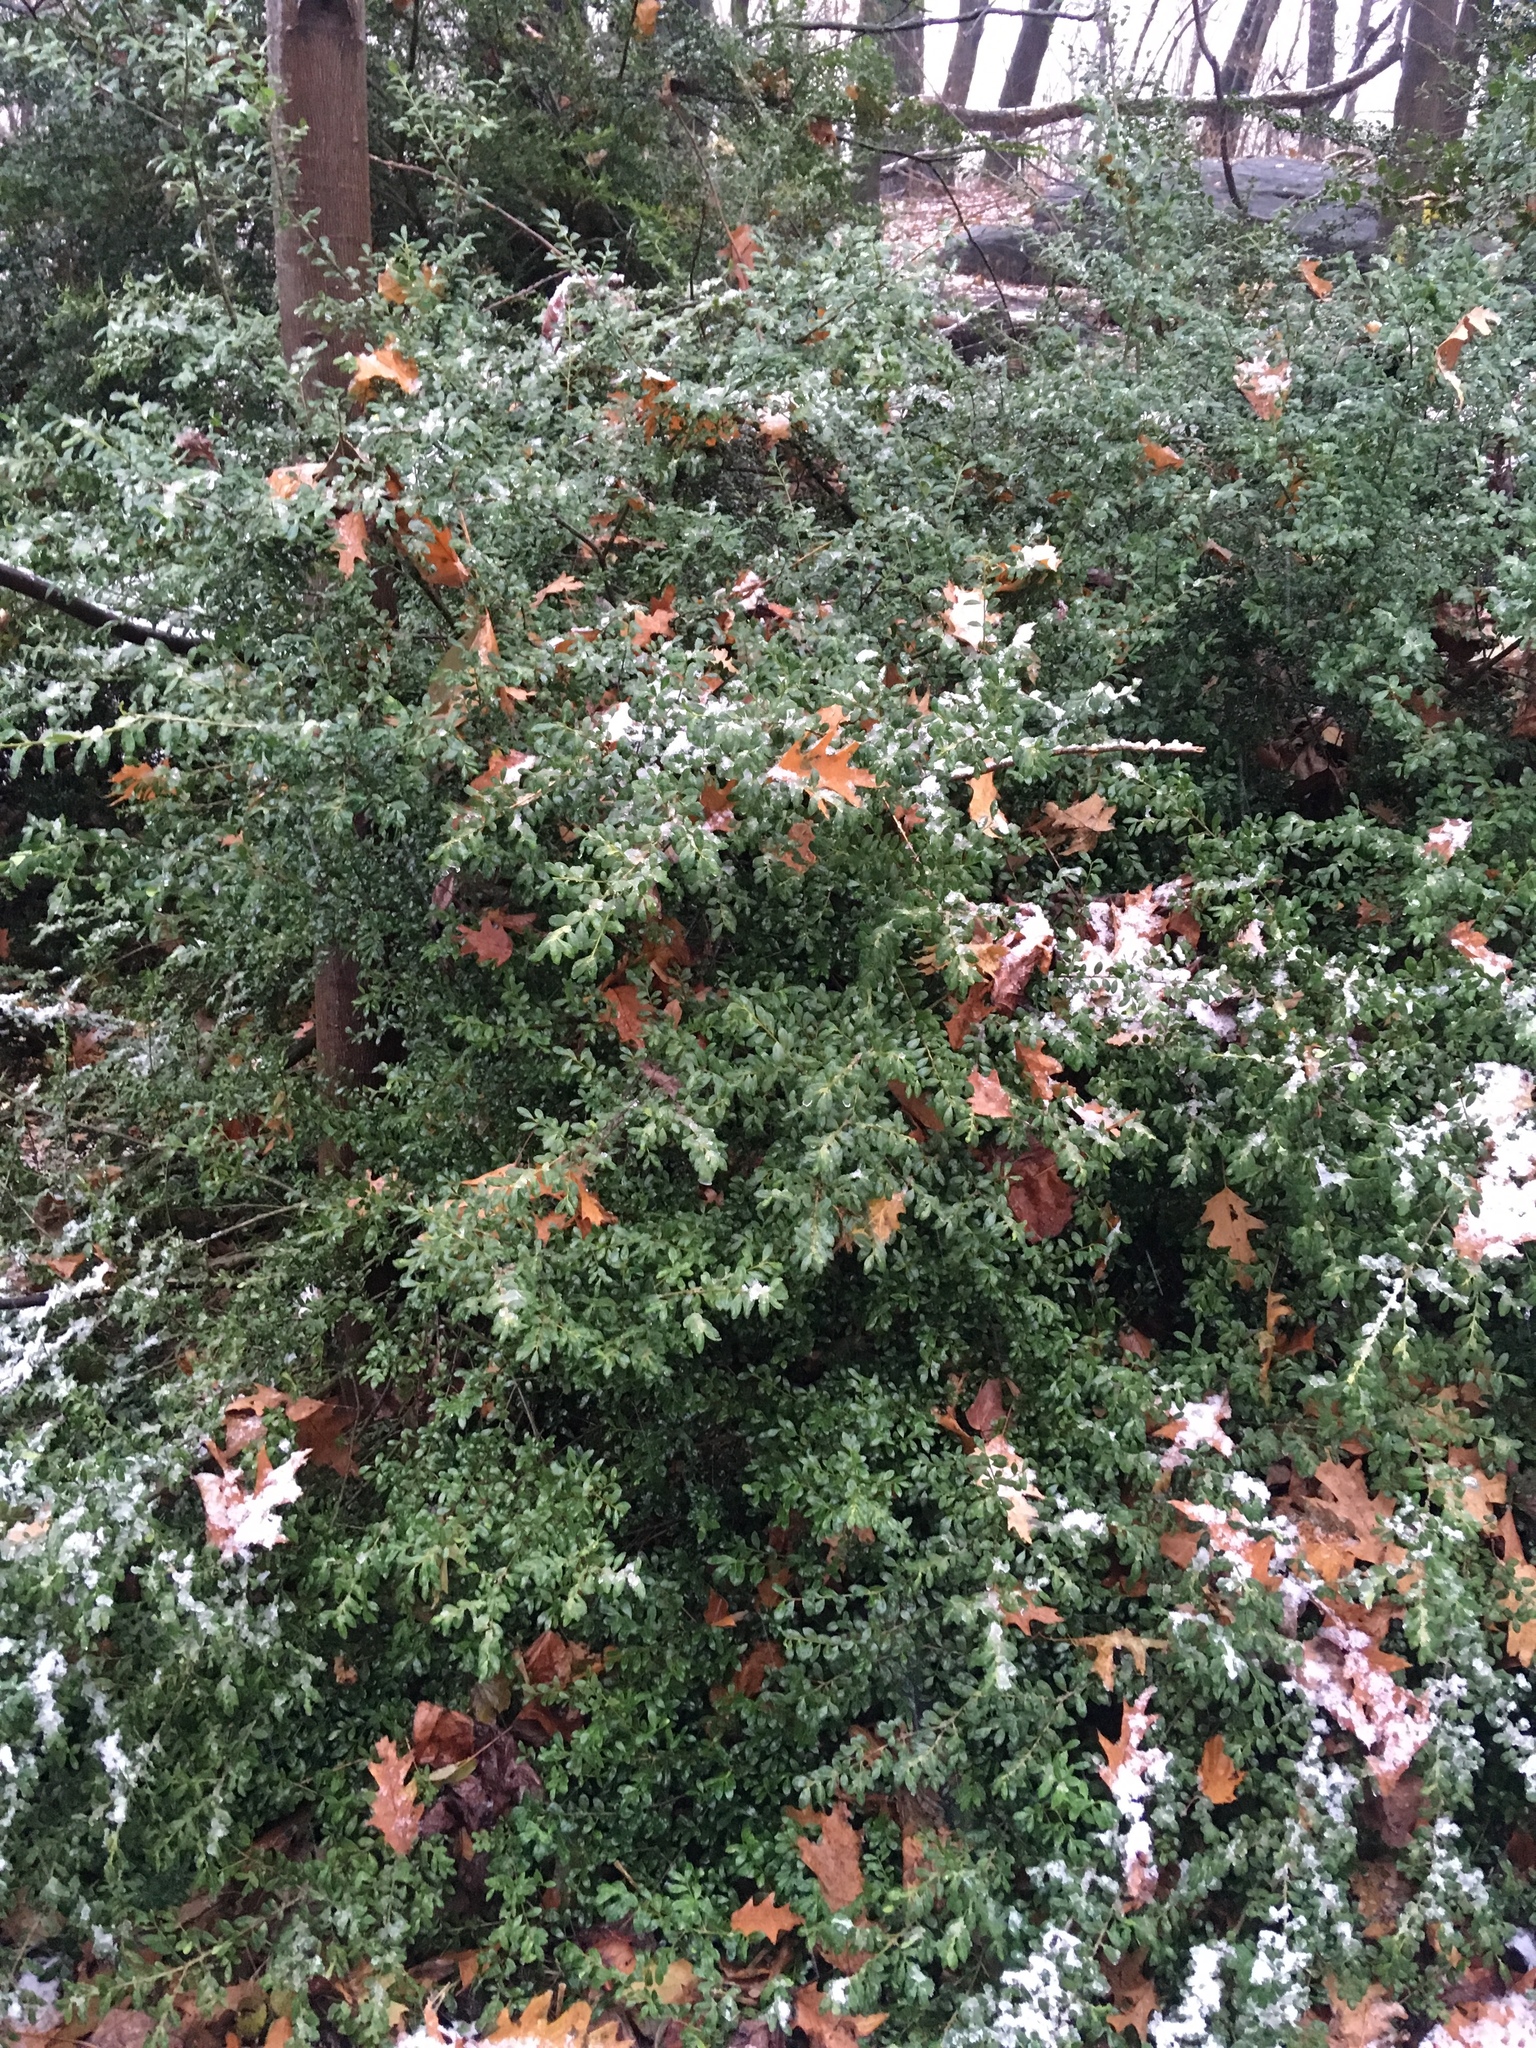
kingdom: Plantae
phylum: Tracheophyta
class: Magnoliopsida
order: Aquifoliales
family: Aquifoliaceae
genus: Ilex
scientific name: Ilex crenata
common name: Japanese holly
